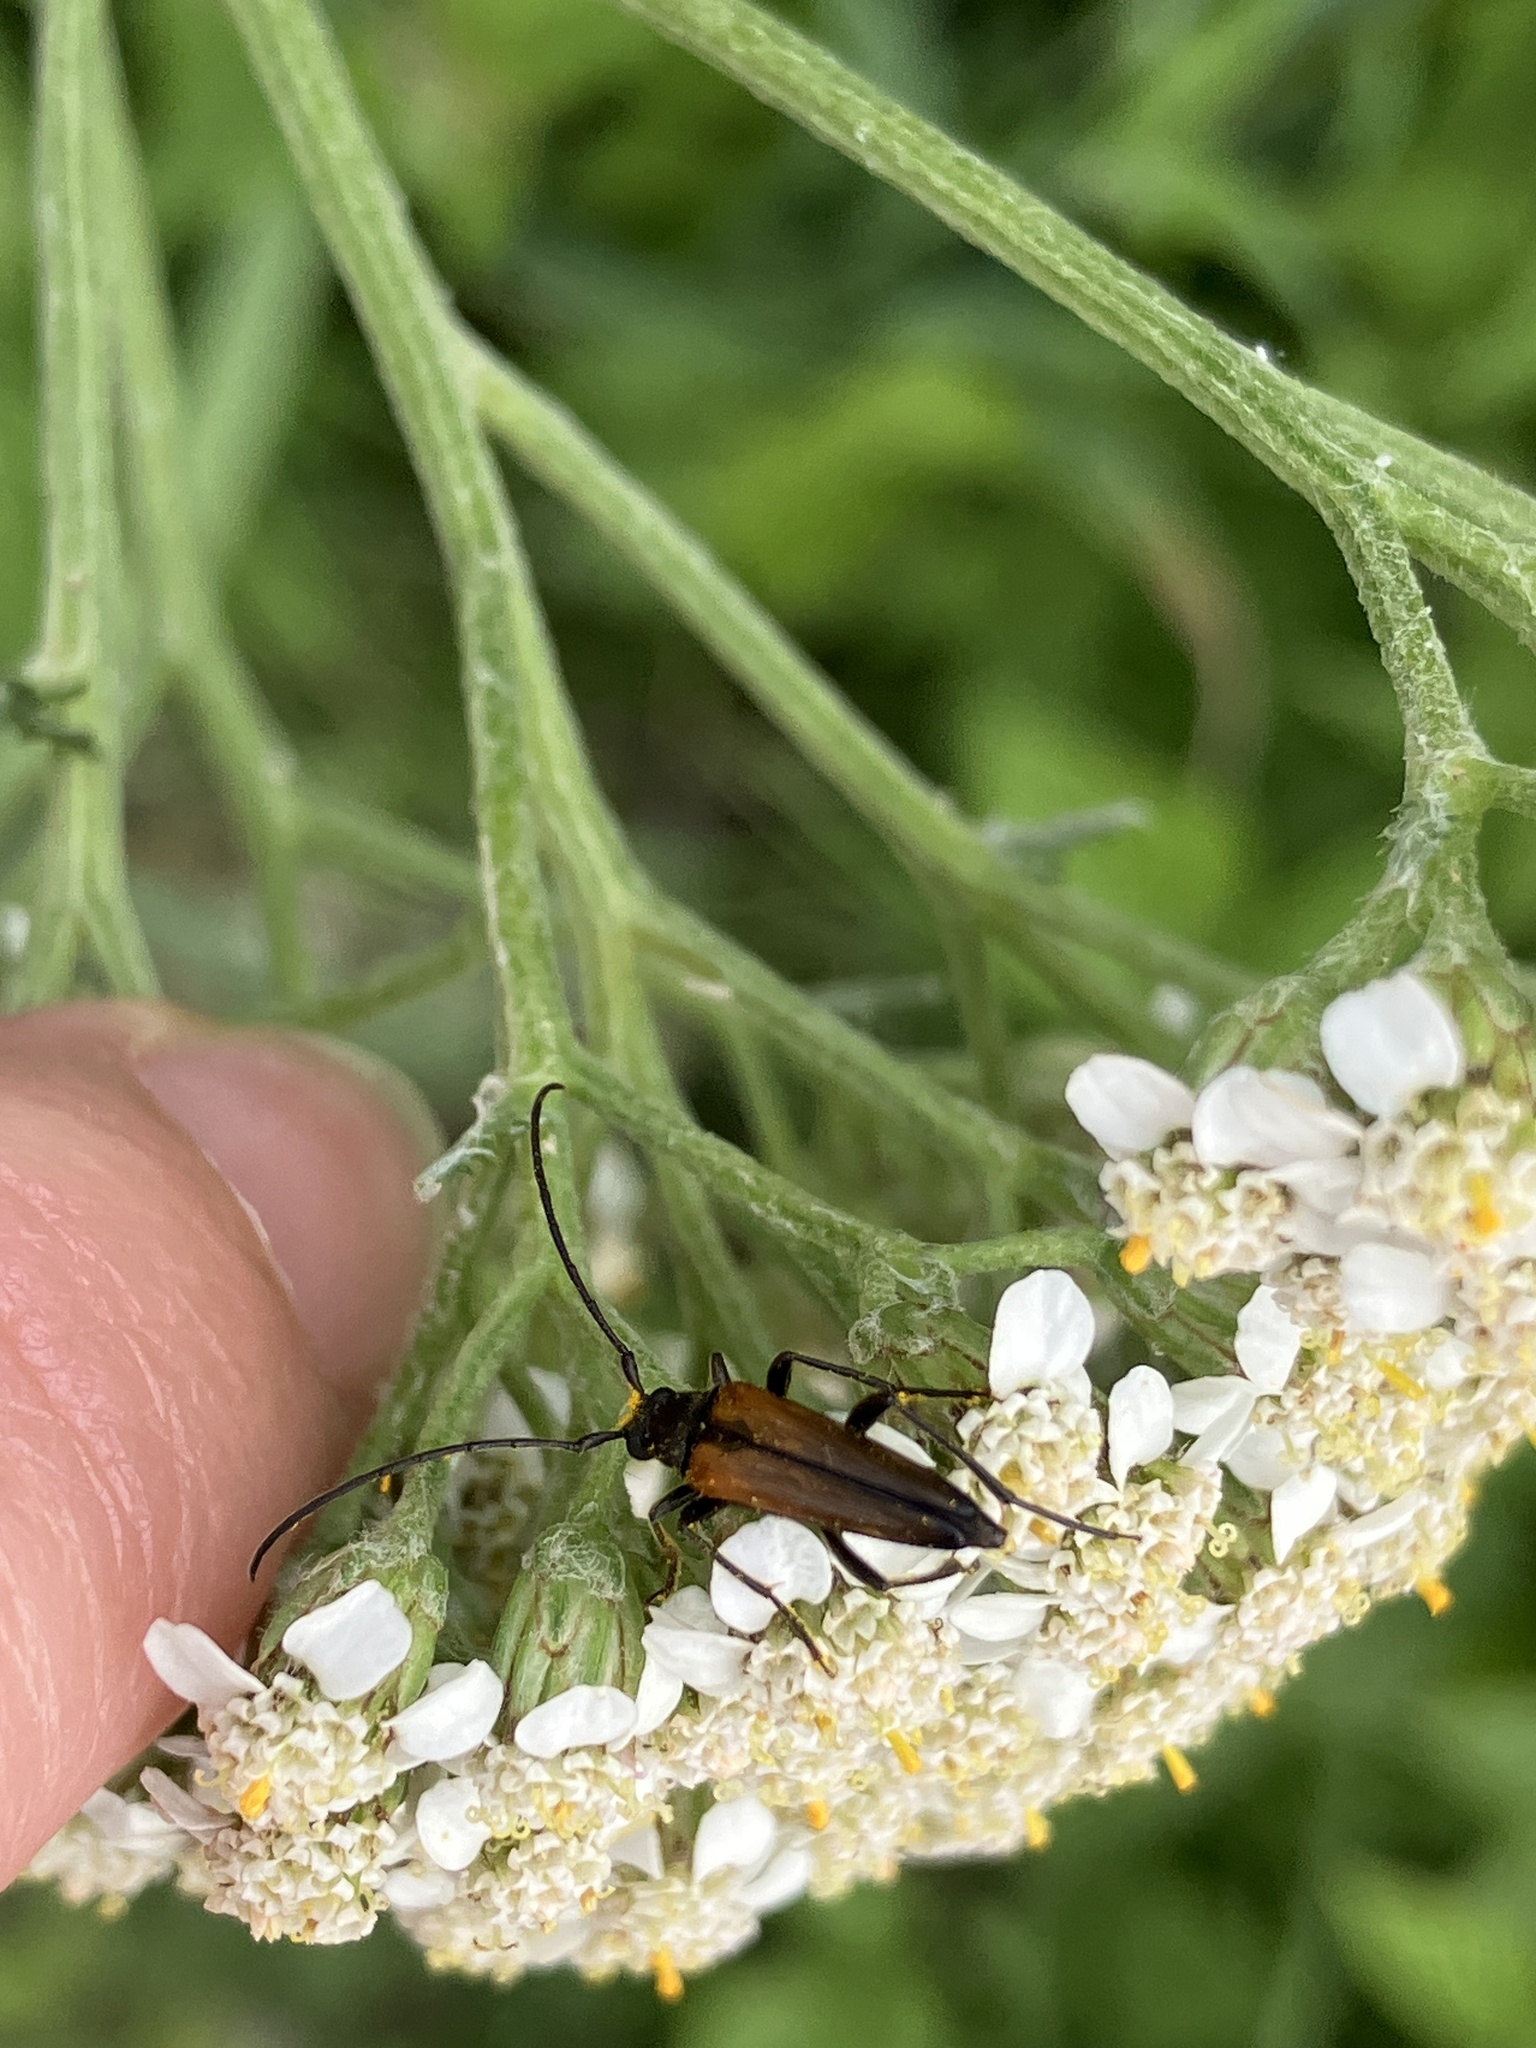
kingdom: Animalia
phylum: Arthropoda
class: Insecta
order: Coleoptera
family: Cerambycidae
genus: Stenurella
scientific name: Stenurella melanura
